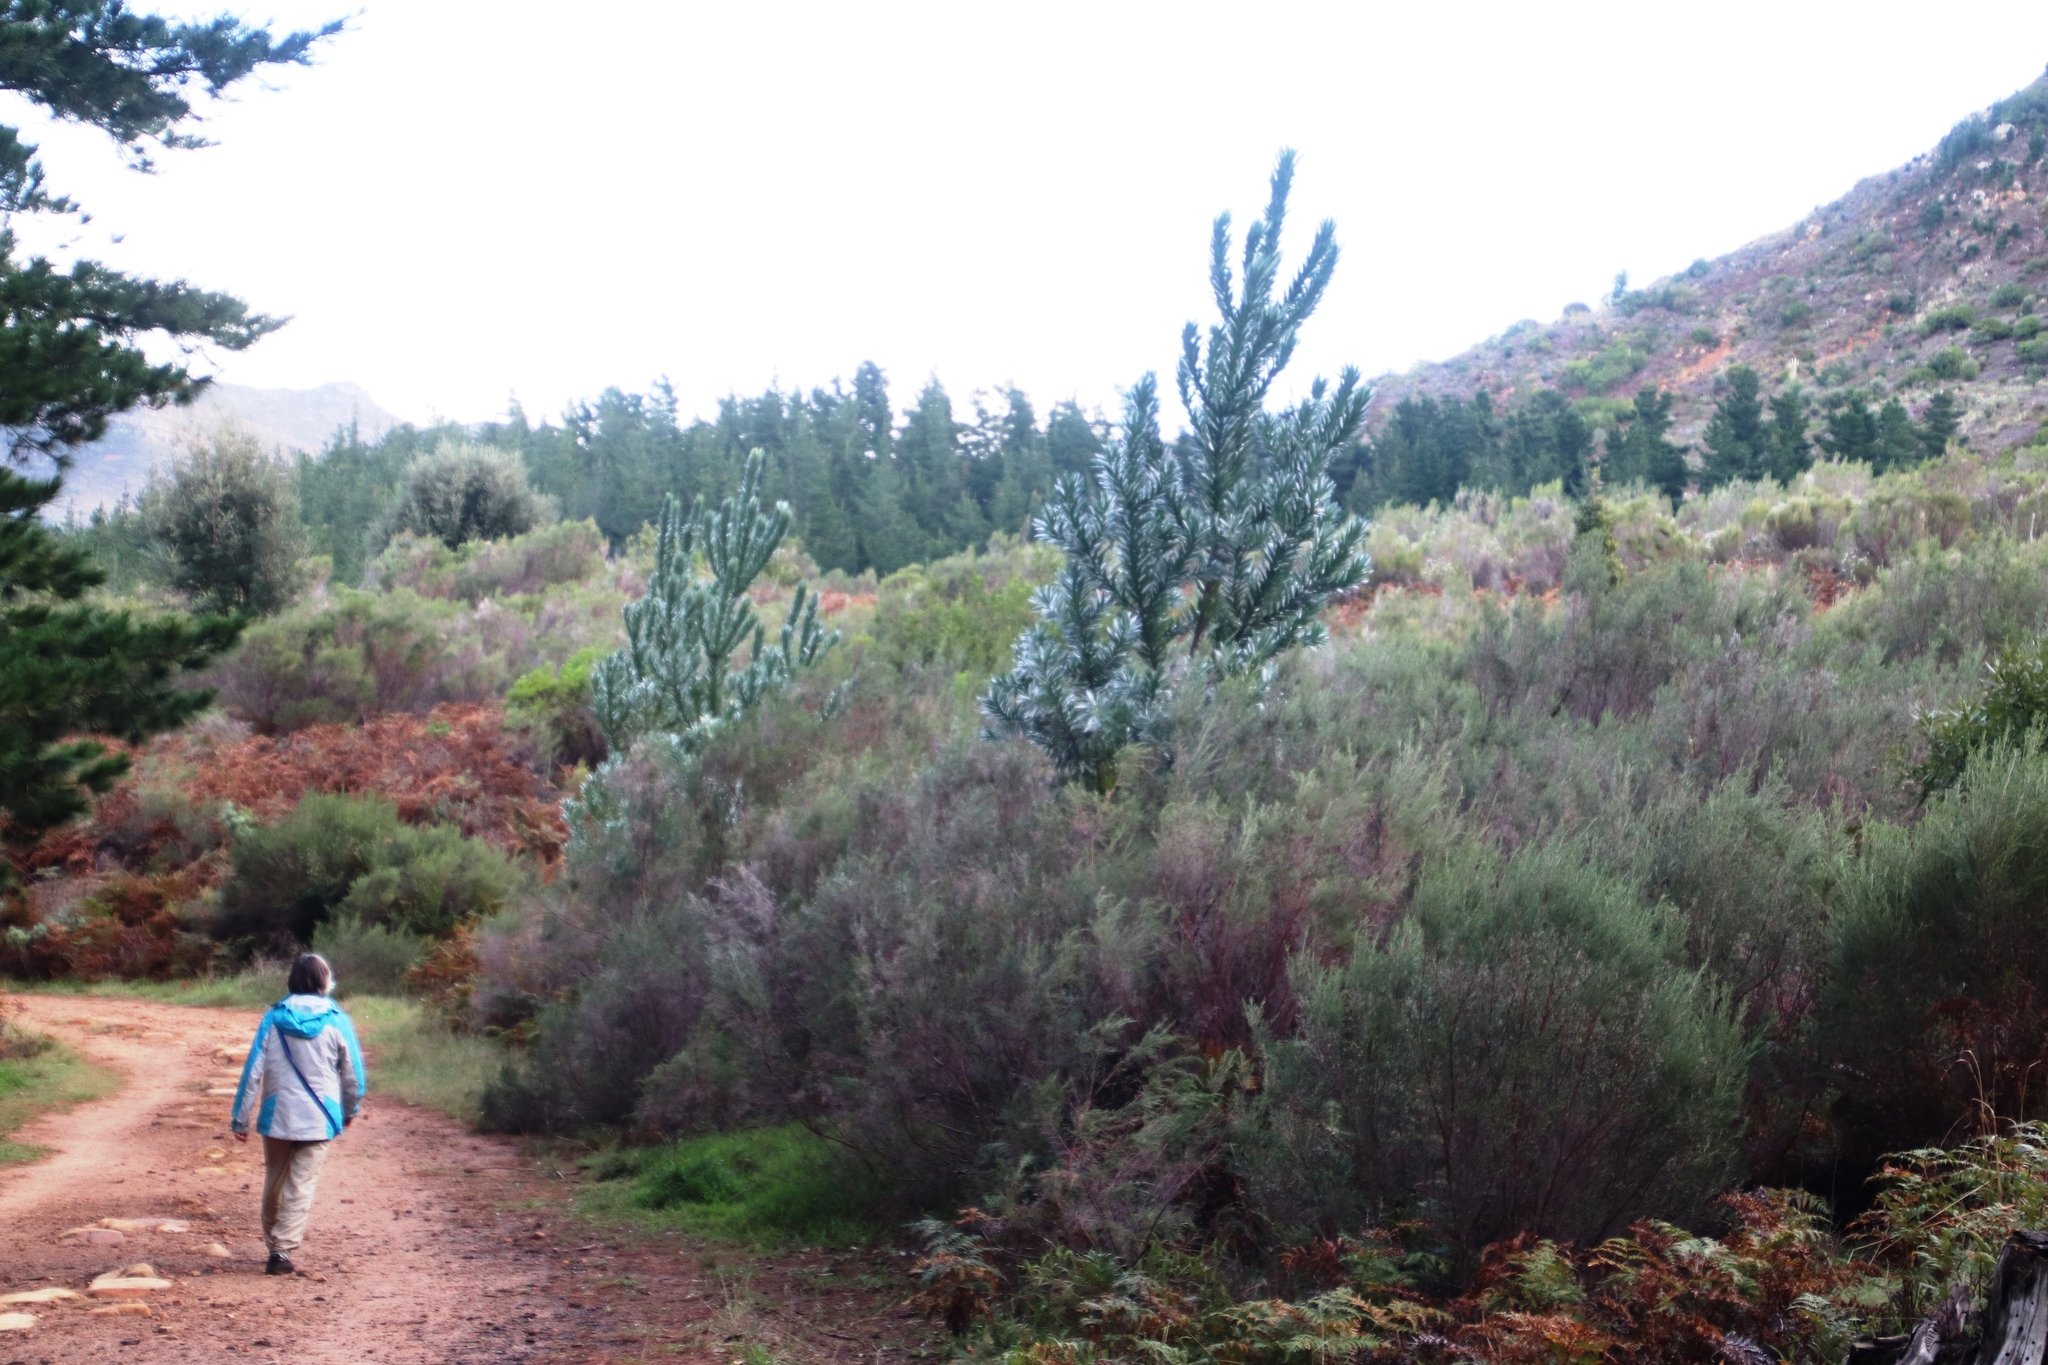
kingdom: Plantae
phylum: Tracheophyta
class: Magnoliopsida
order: Proteales
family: Proteaceae
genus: Leucadendron
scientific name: Leucadendron argenteum
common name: Cape silver tree
